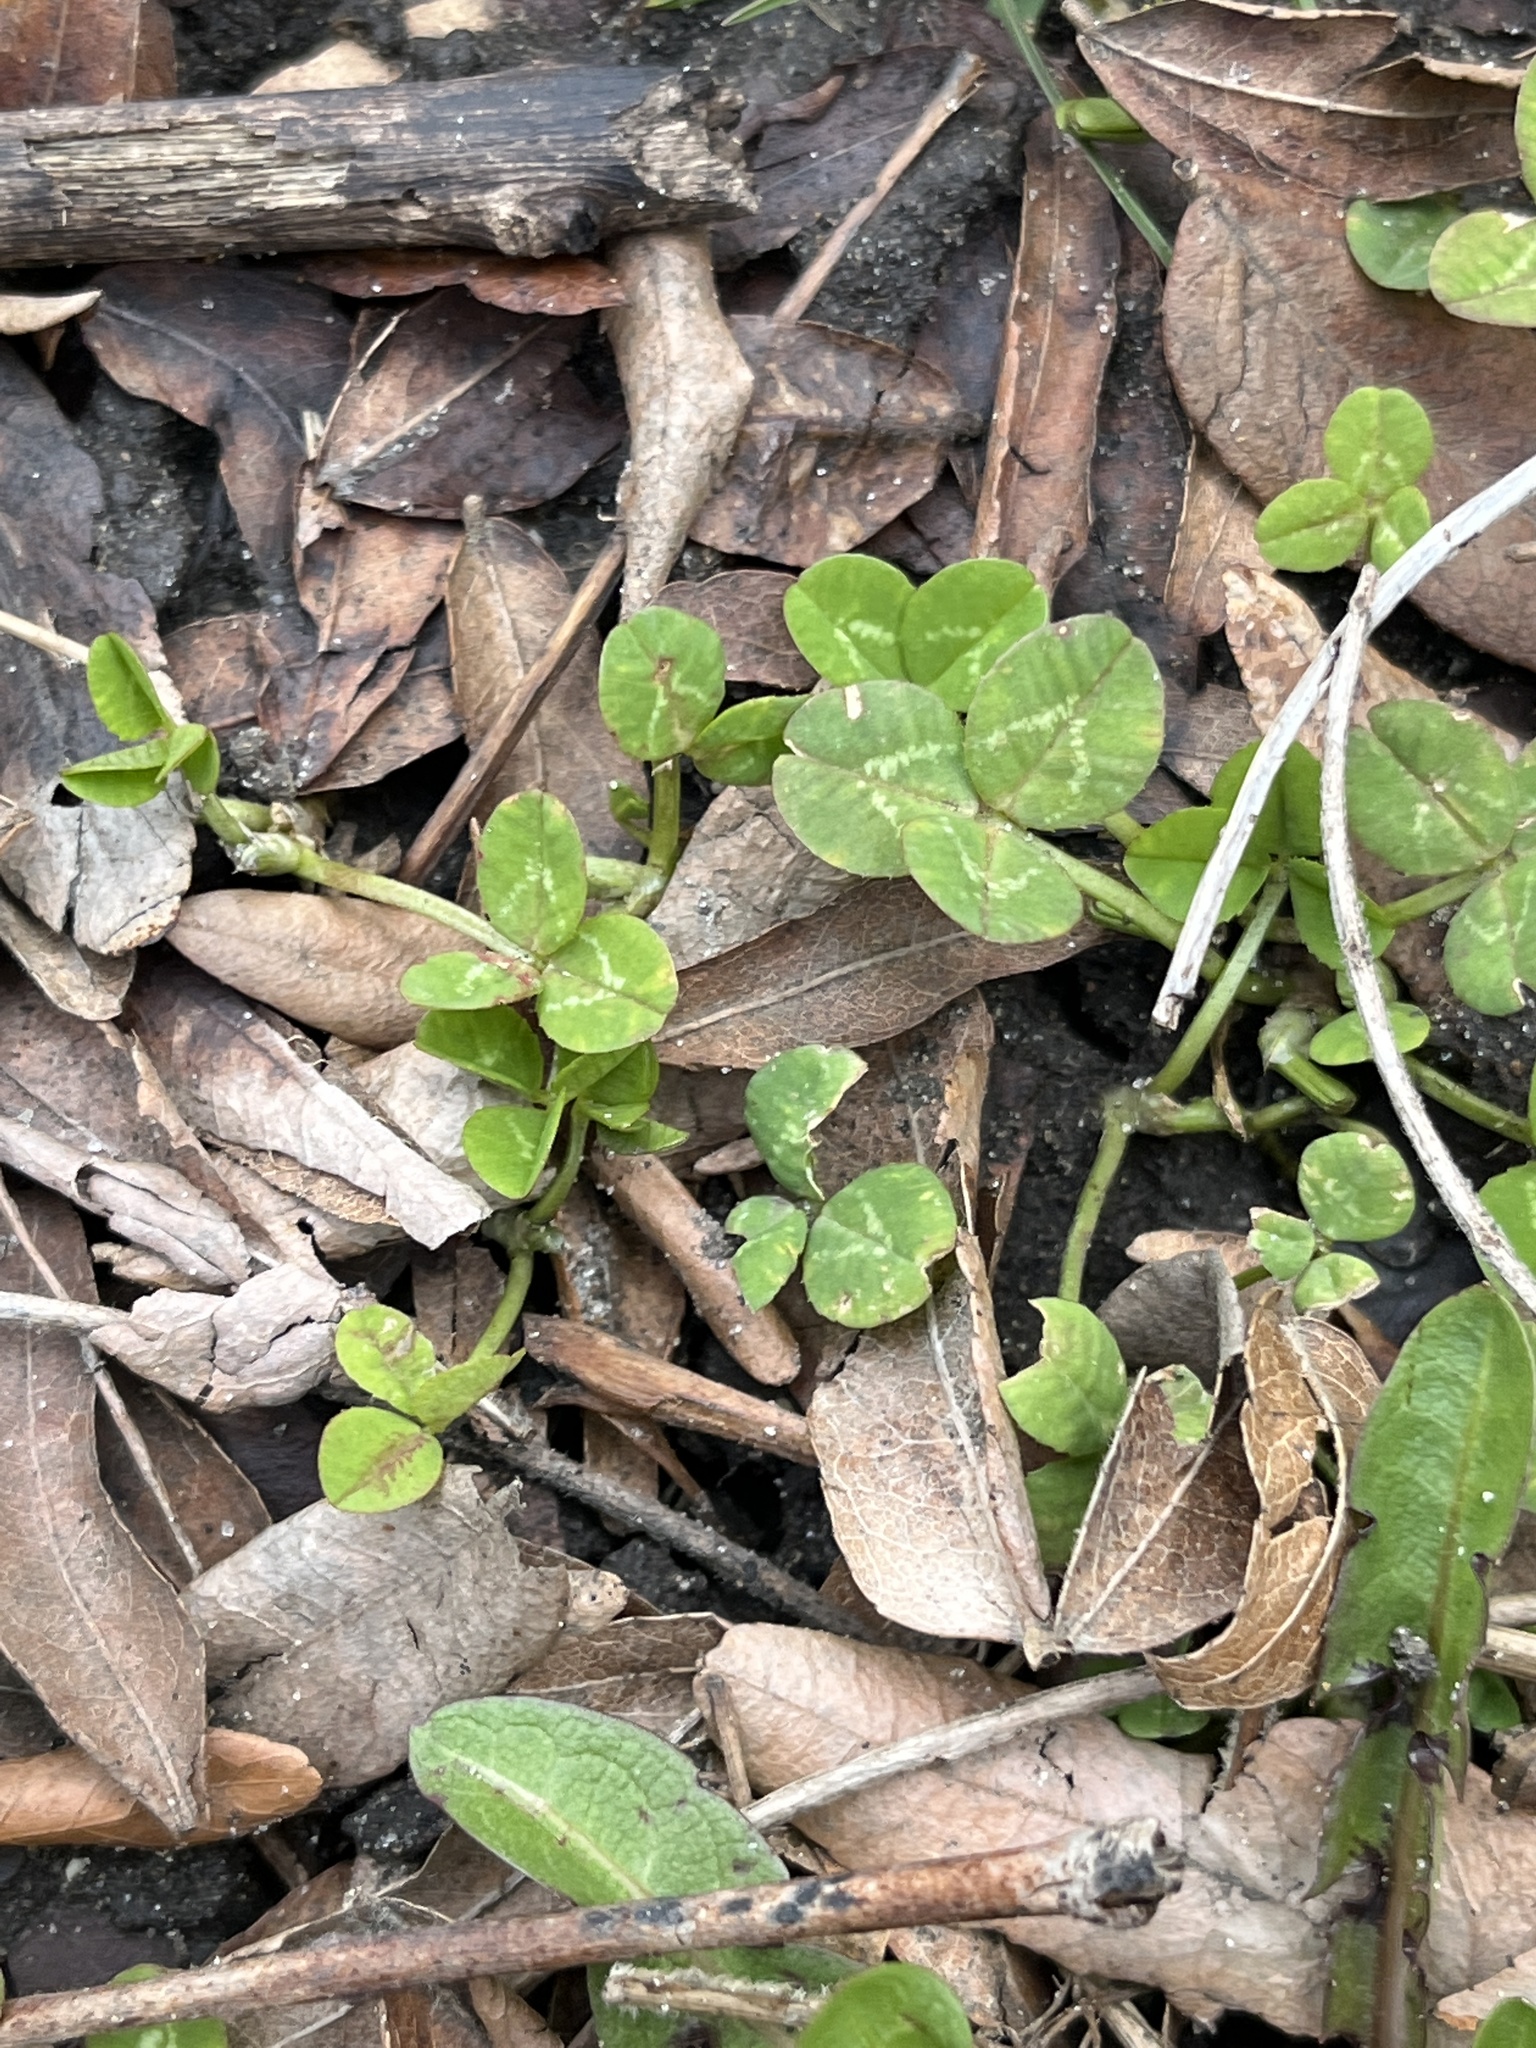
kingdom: Plantae
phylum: Tracheophyta
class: Magnoliopsida
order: Fabales
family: Fabaceae
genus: Trifolium
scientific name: Trifolium repens
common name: White clover
